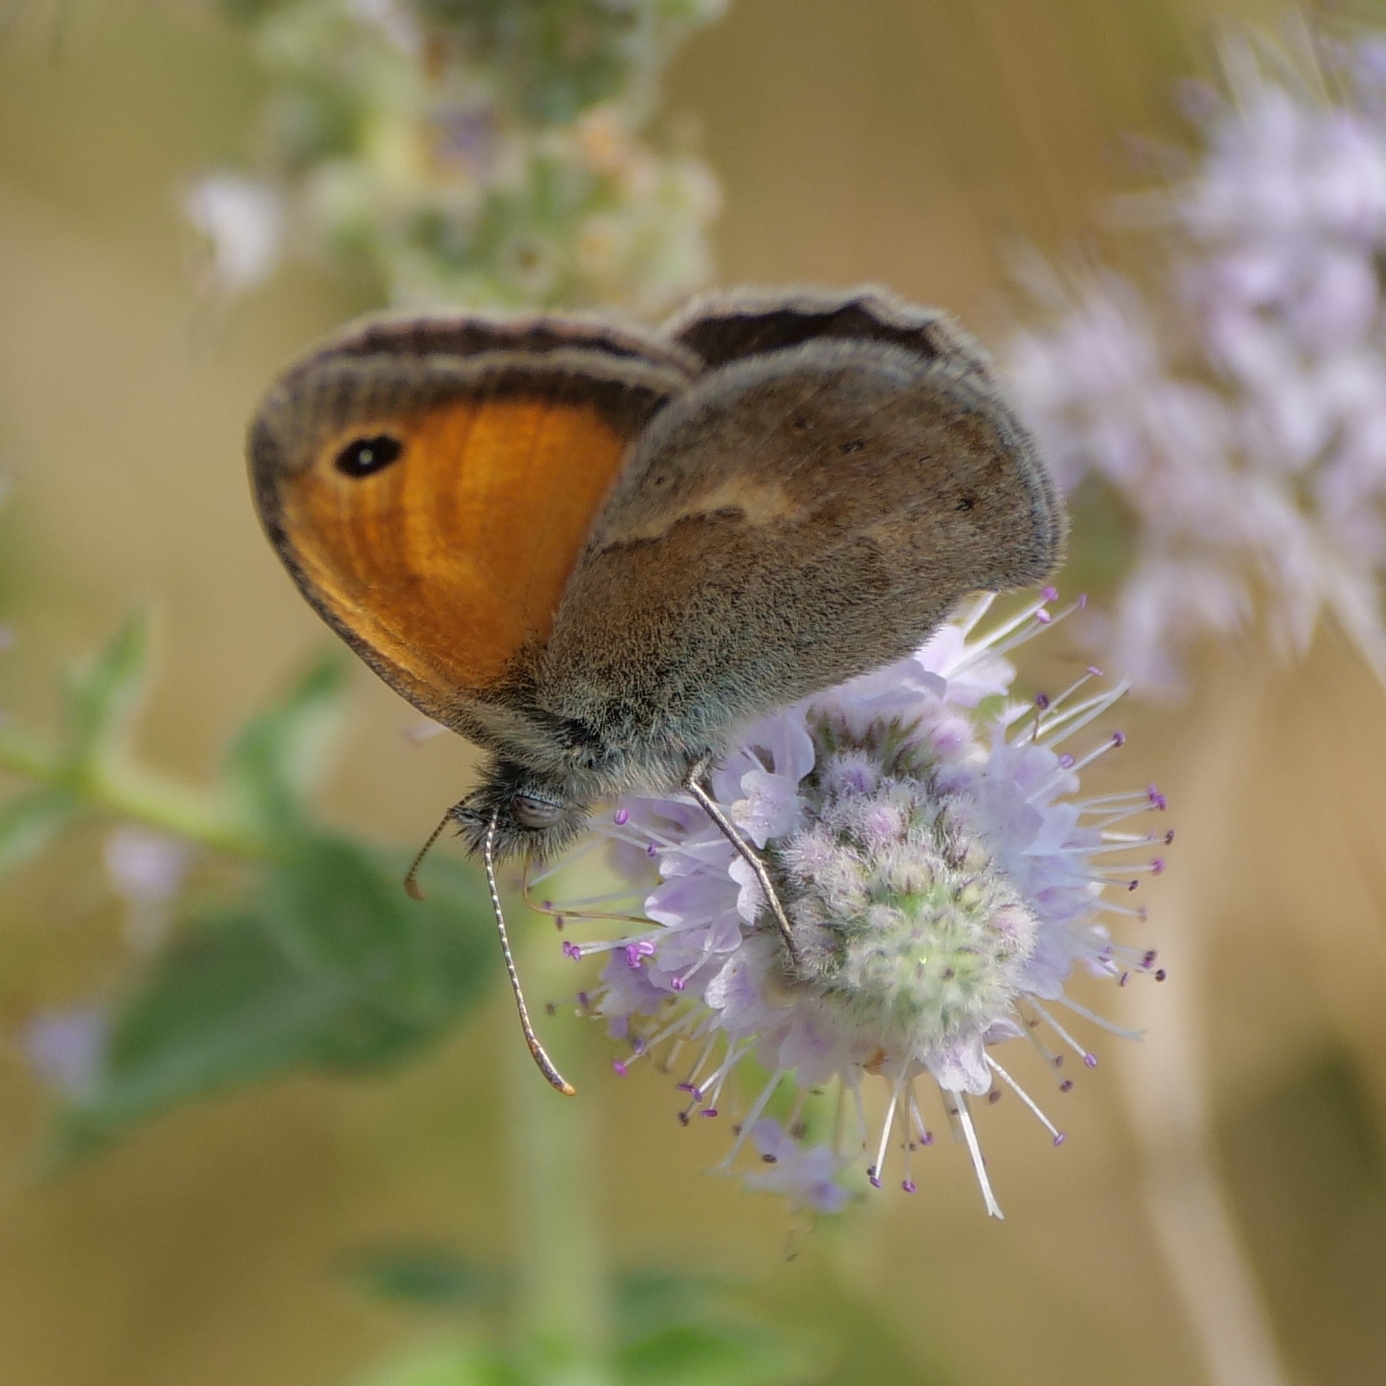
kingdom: Animalia
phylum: Arthropoda
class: Insecta
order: Lepidoptera
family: Nymphalidae
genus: Coenonympha
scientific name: Coenonympha pamphilus
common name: Small heath
